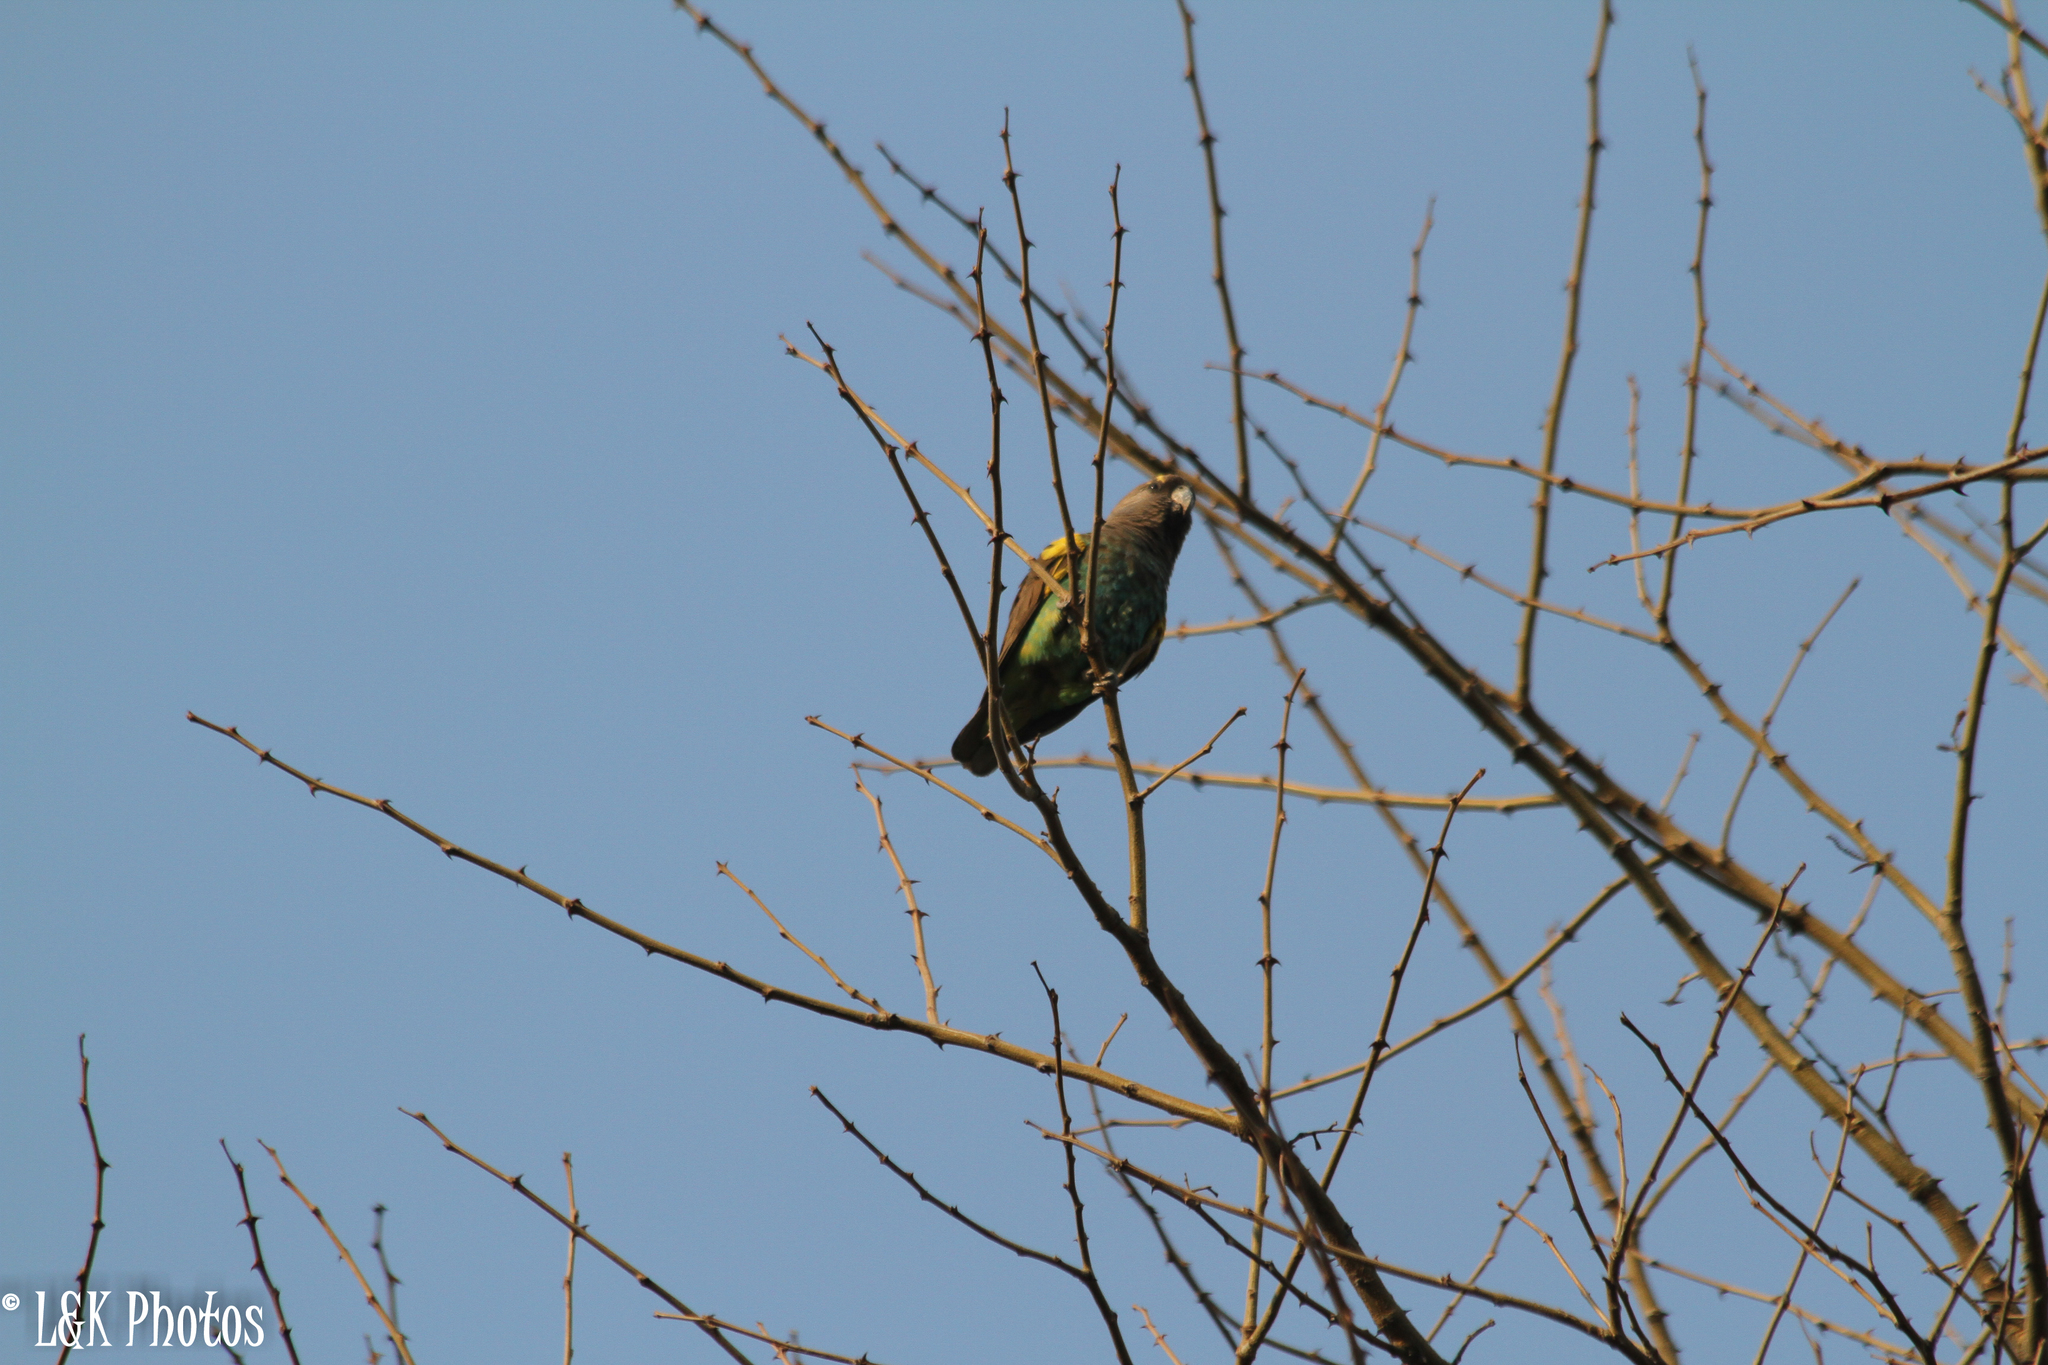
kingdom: Animalia
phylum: Chordata
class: Aves
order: Psittaciformes
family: Psittacidae
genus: Poicephalus
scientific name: Poicephalus meyeri
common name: Meyer's parrot
